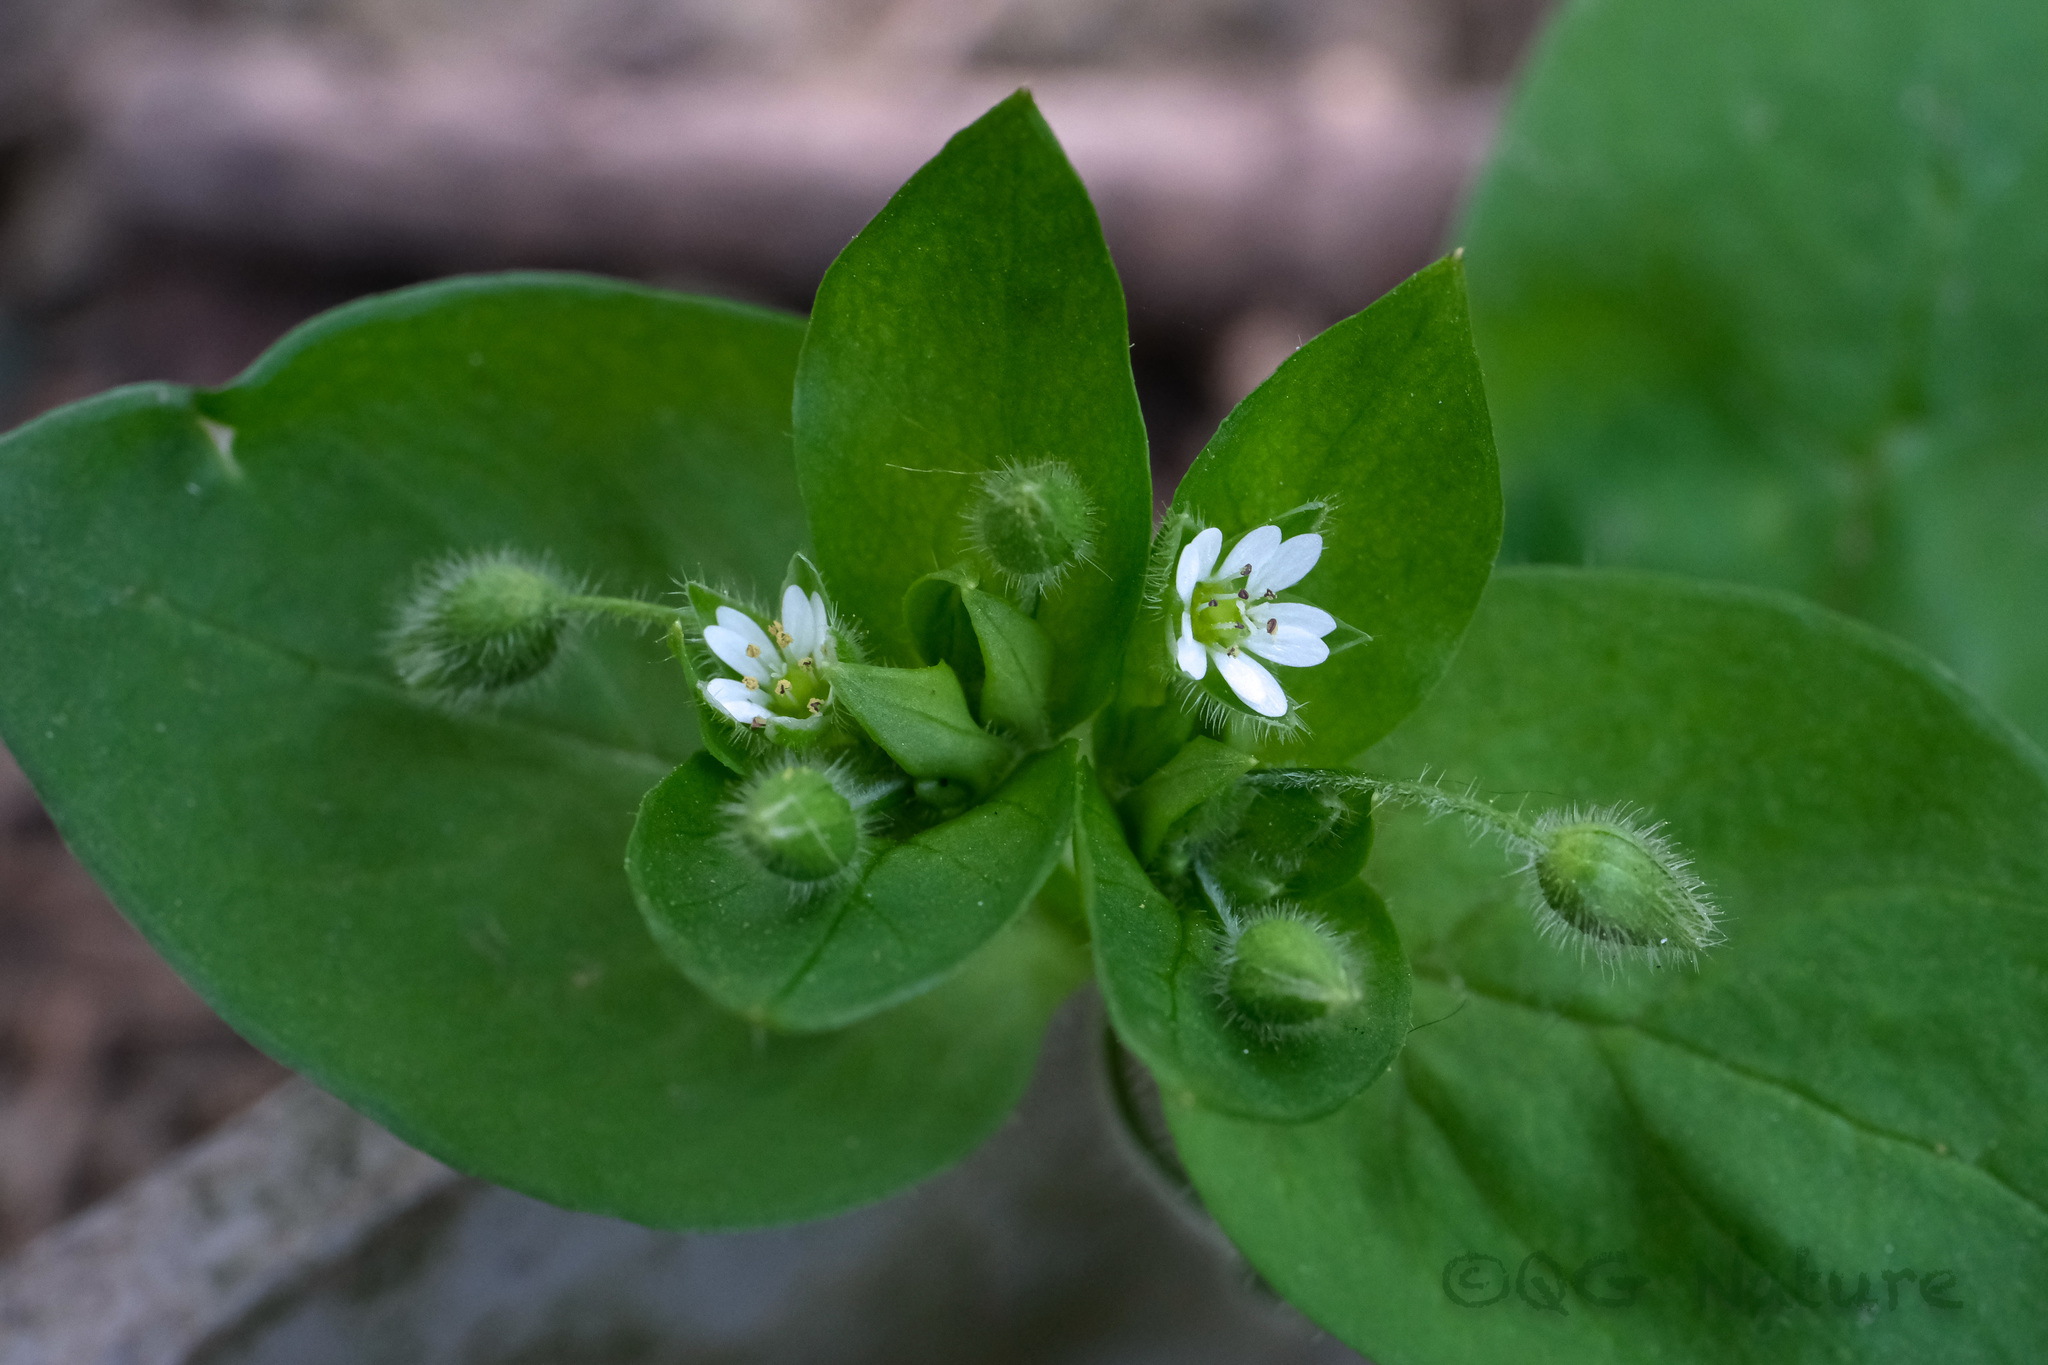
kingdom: Plantae
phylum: Tracheophyta
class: Magnoliopsida
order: Caryophyllales
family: Caryophyllaceae
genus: Stellaria
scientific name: Stellaria neglecta
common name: Greater chickweed
